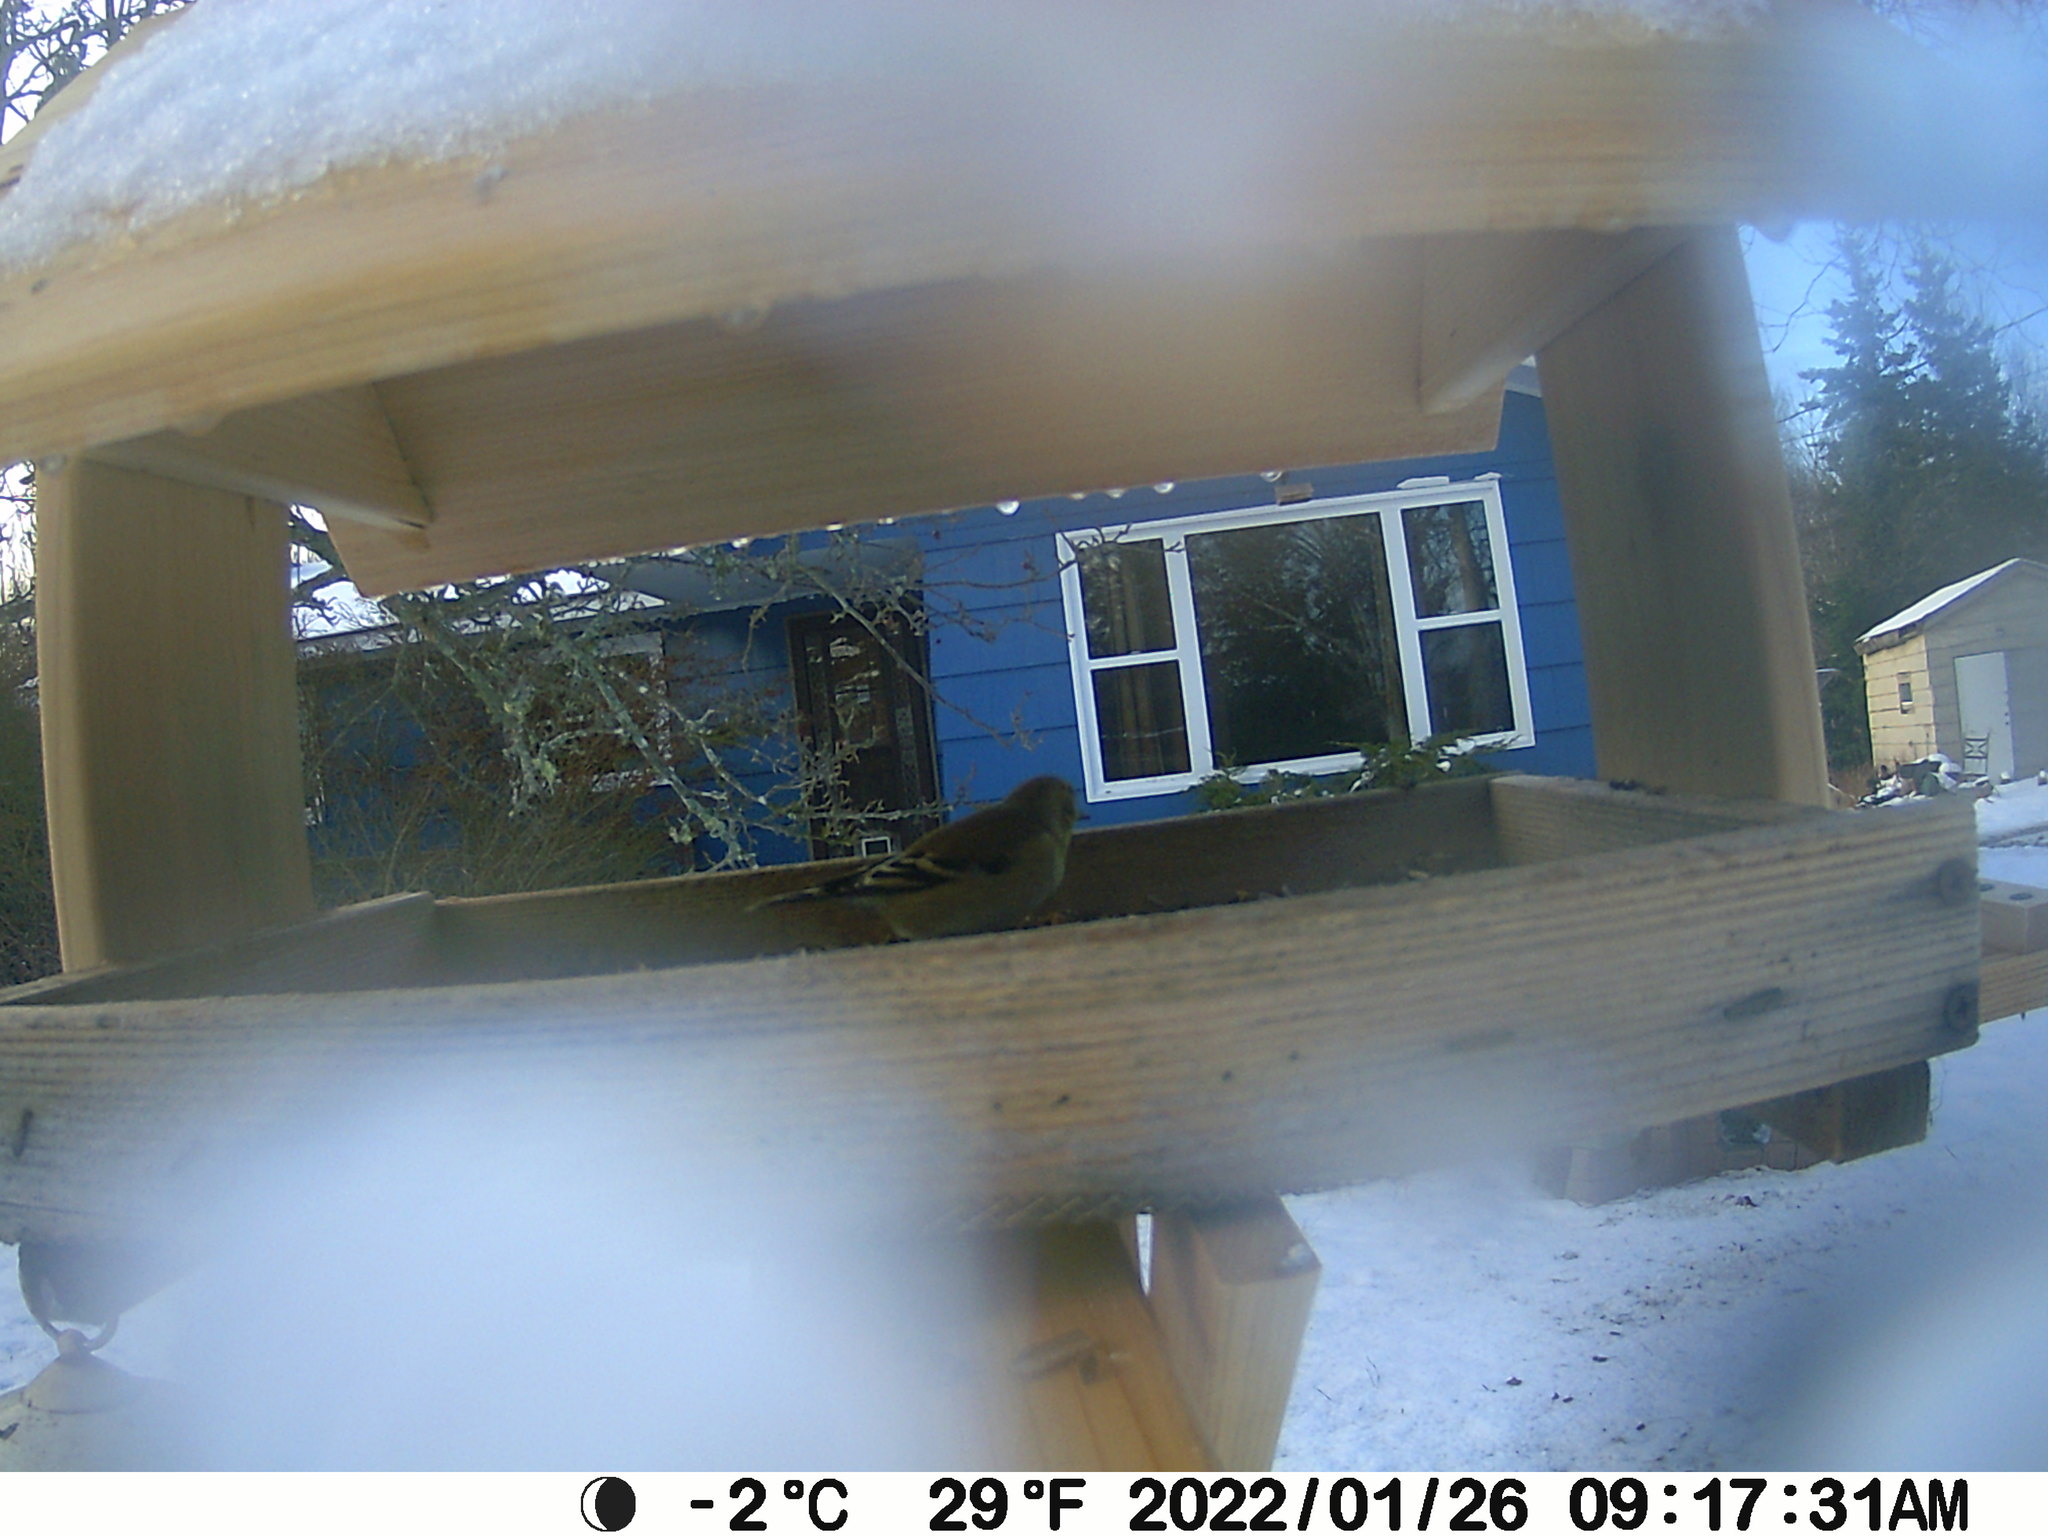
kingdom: Animalia
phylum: Chordata
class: Aves
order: Passeriformes
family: Fringillidae
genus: Spinus
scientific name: Spinus tristis
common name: American goldfinch
